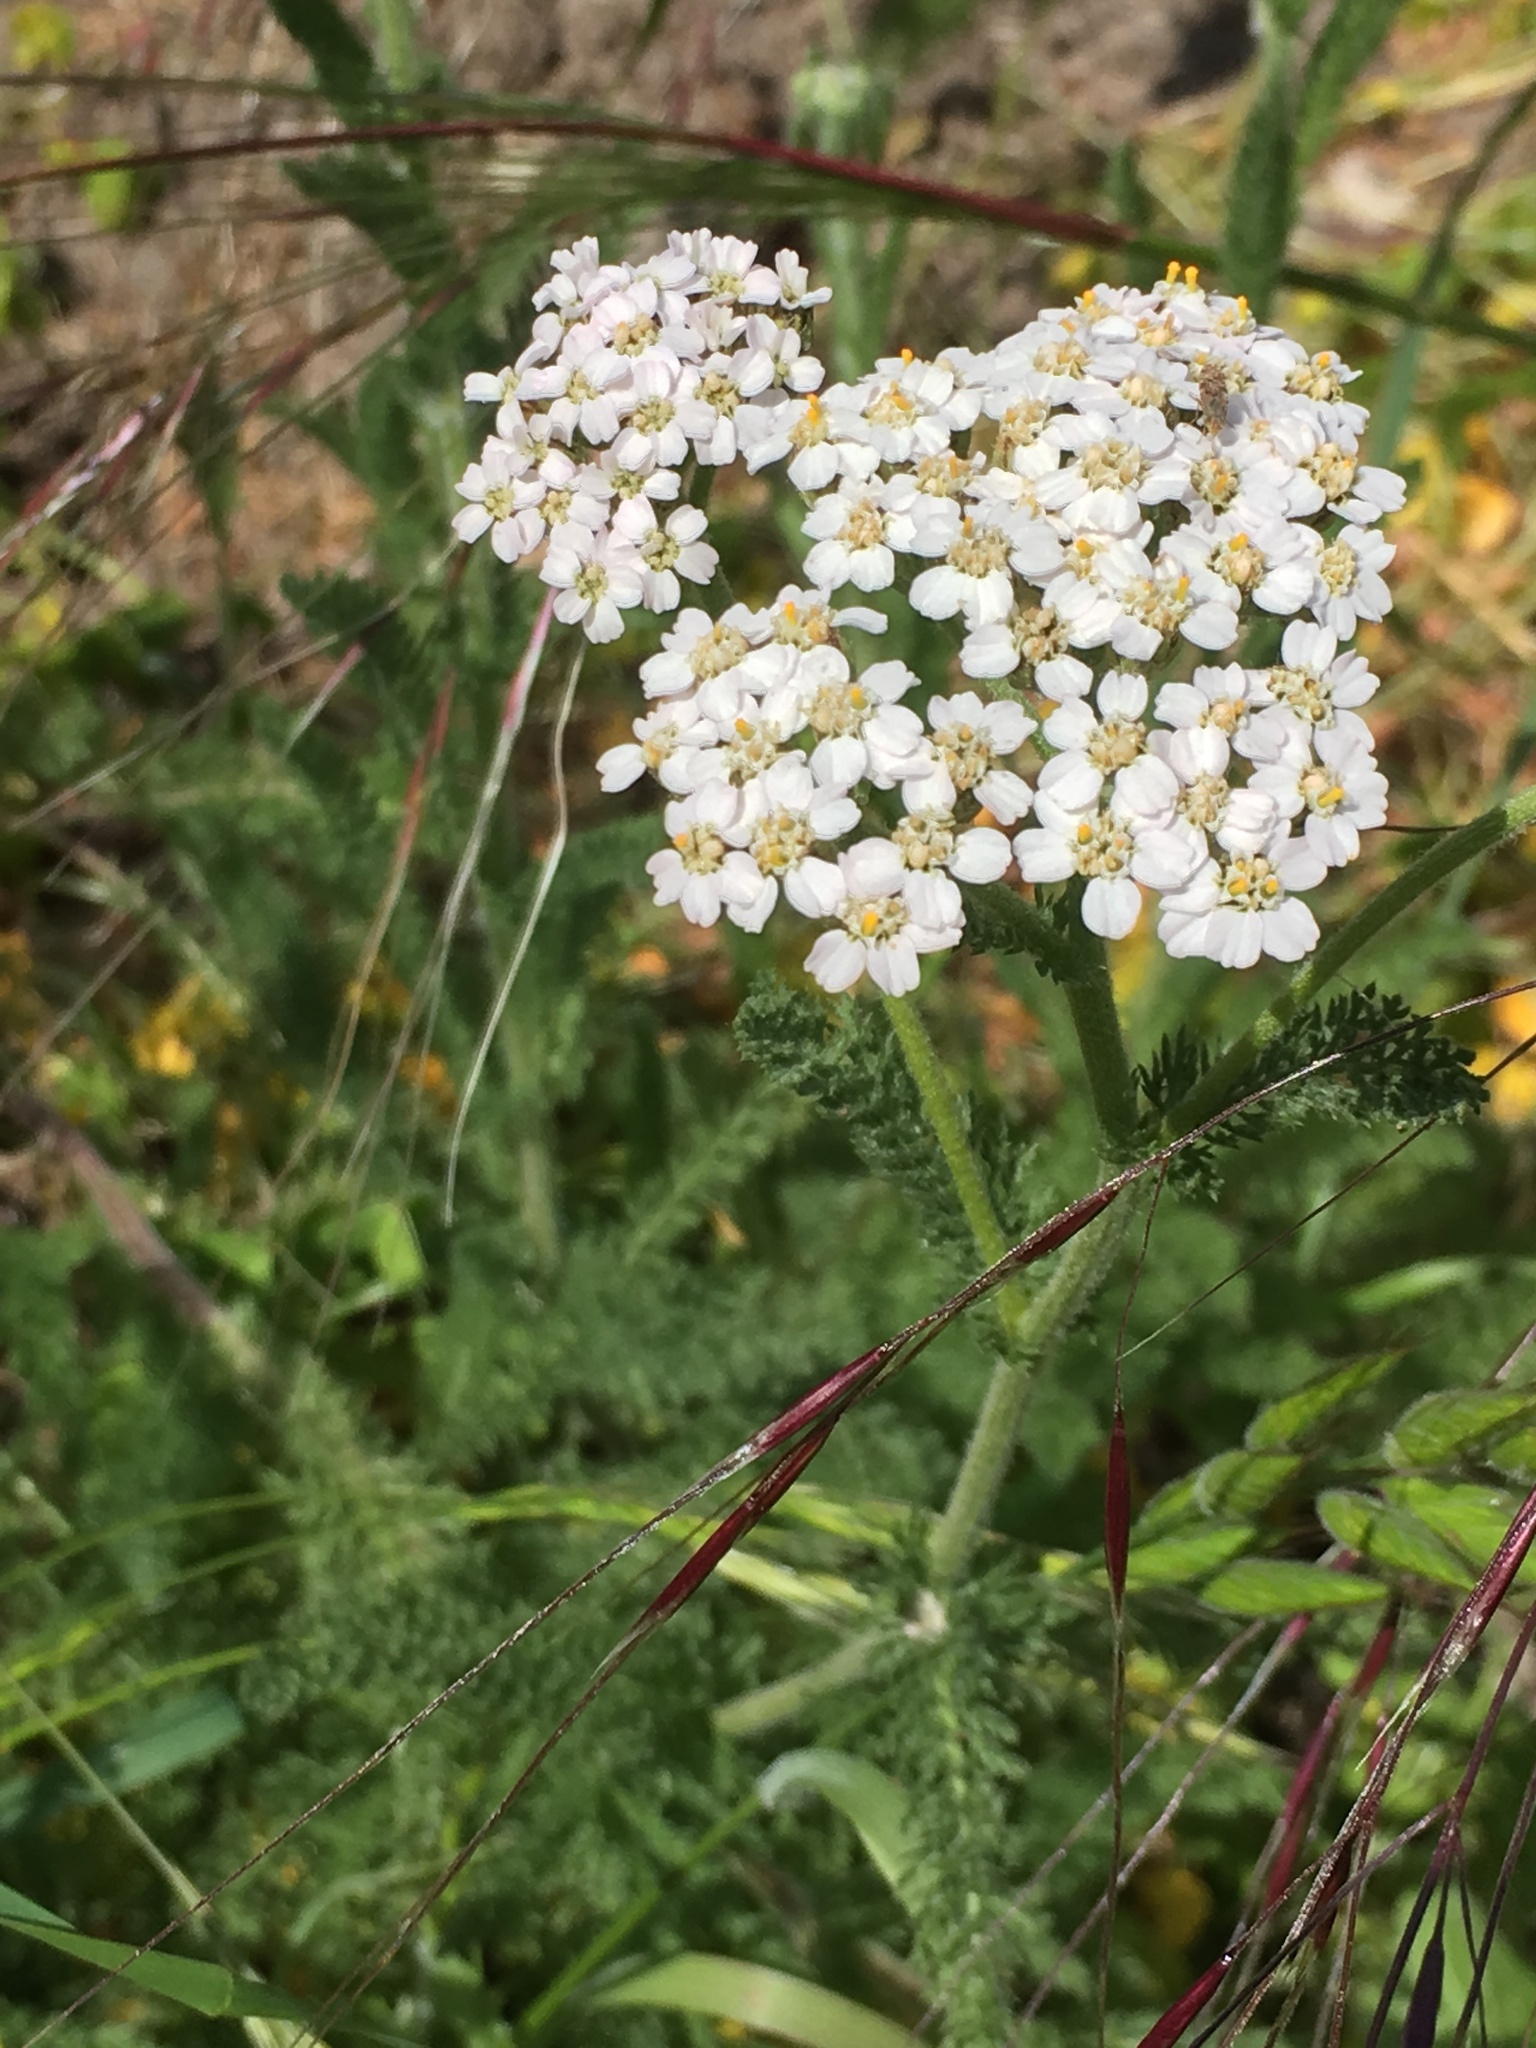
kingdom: Plantae
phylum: Tracheophyta
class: Magnoliopsida
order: Asterales
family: Asteraceae
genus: Achillea
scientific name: Achillea millefolium
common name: Yarrow
